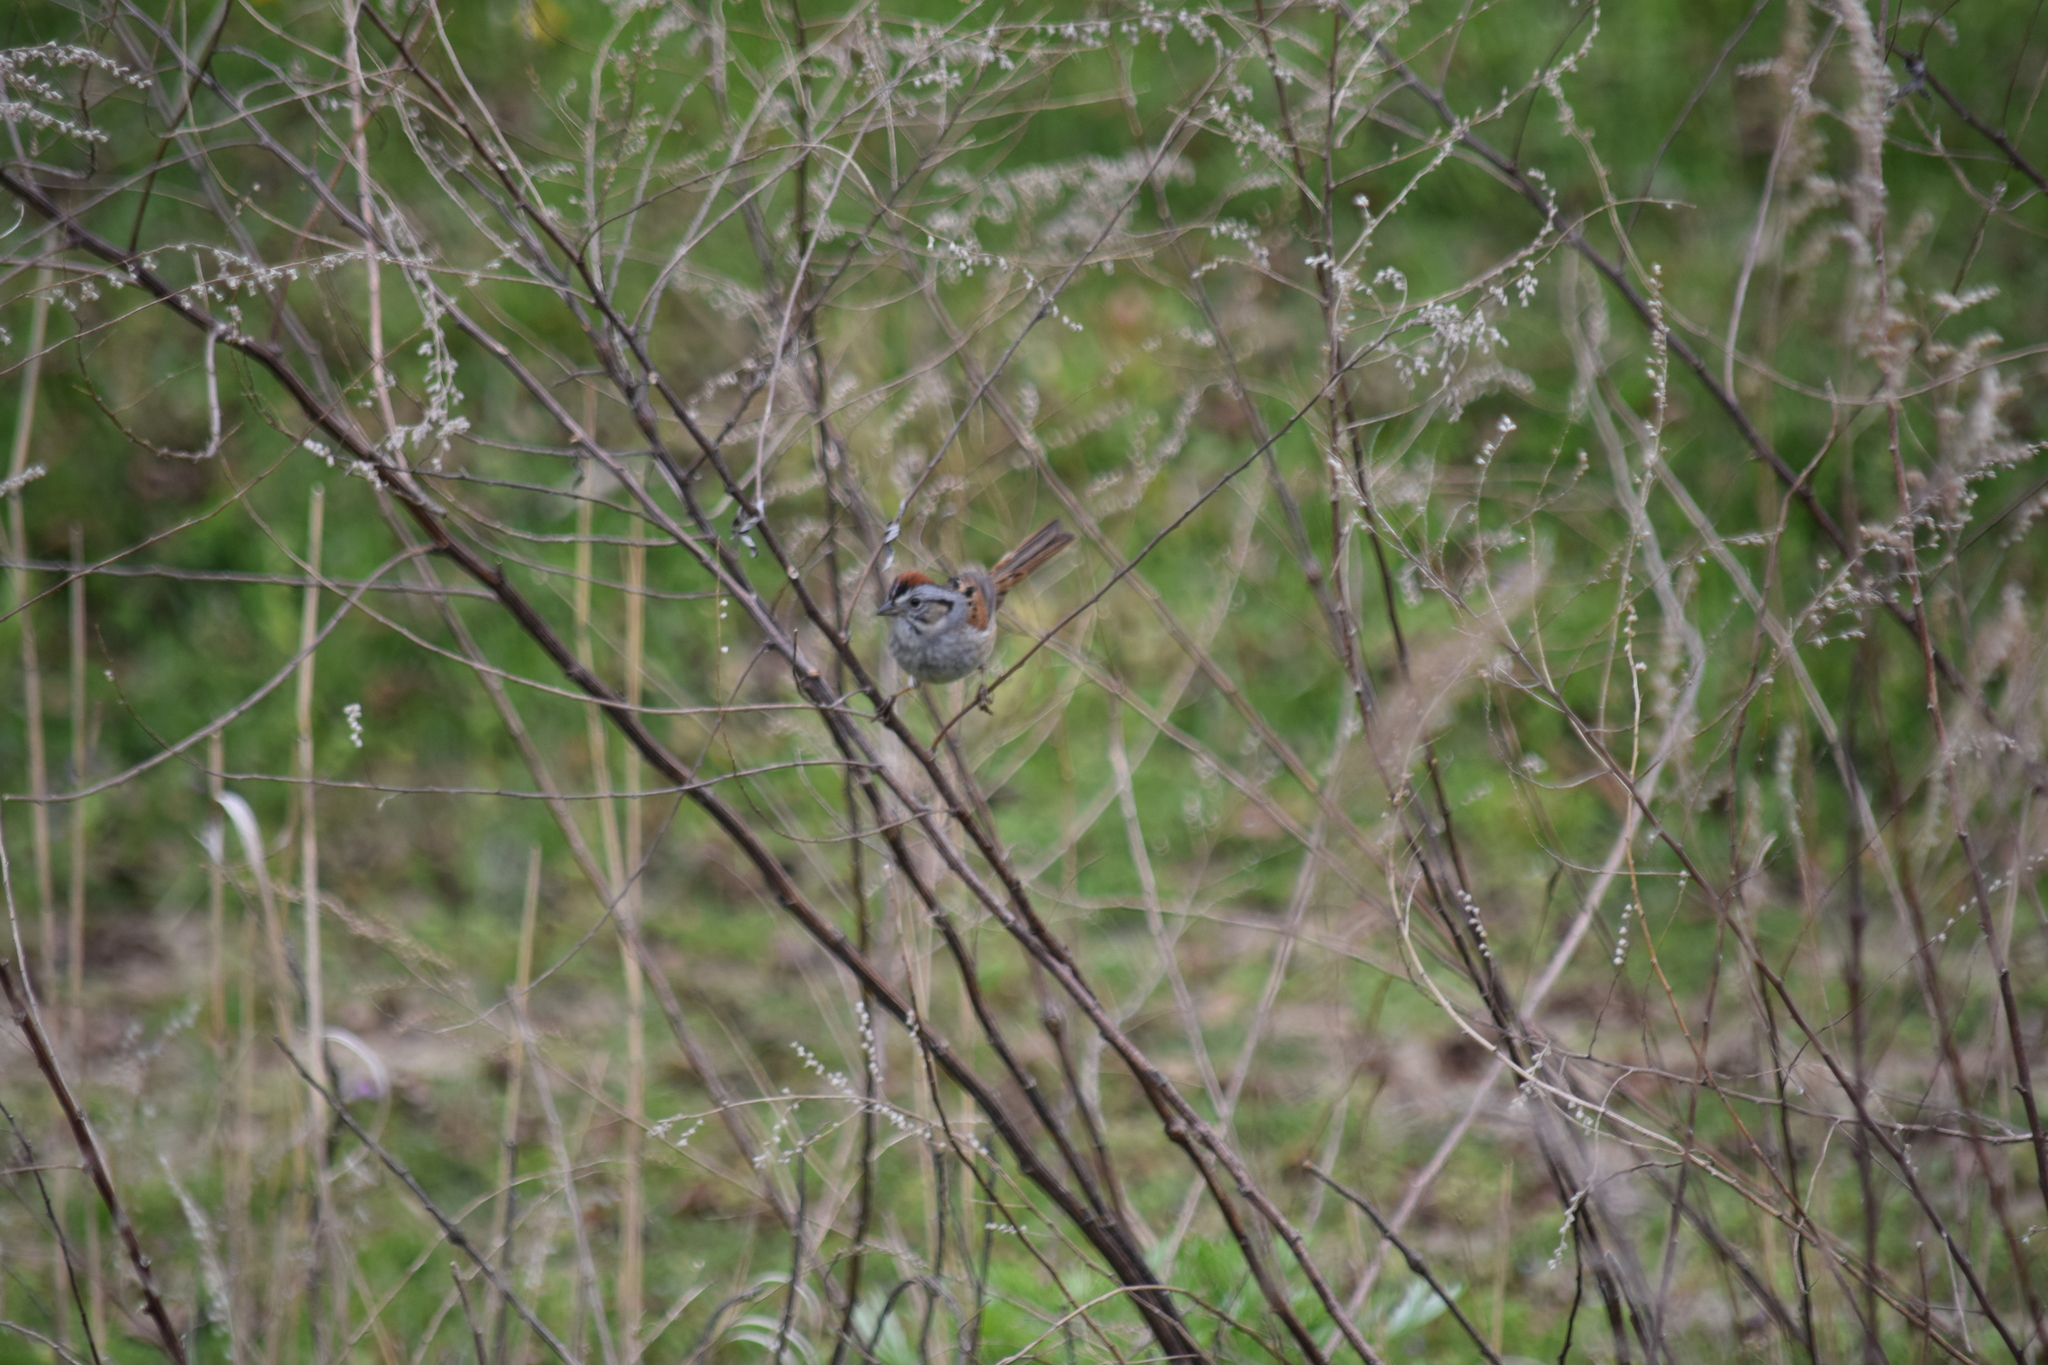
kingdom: Animalia
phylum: Chordata
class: Aves
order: Passeriformes
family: Passerellidae
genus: Melospiza
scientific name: Melospiza georgiana
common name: Swamp sparrow
